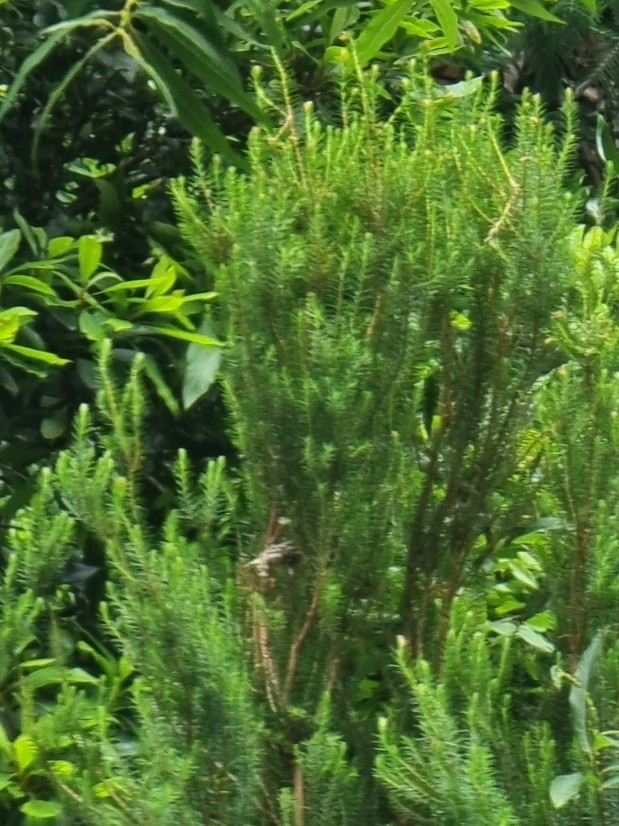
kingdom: Plantae
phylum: Tracheophyta
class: Magnoliopsida
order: Ericales
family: Ericaceae
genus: Erica
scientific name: Erica platycodon
